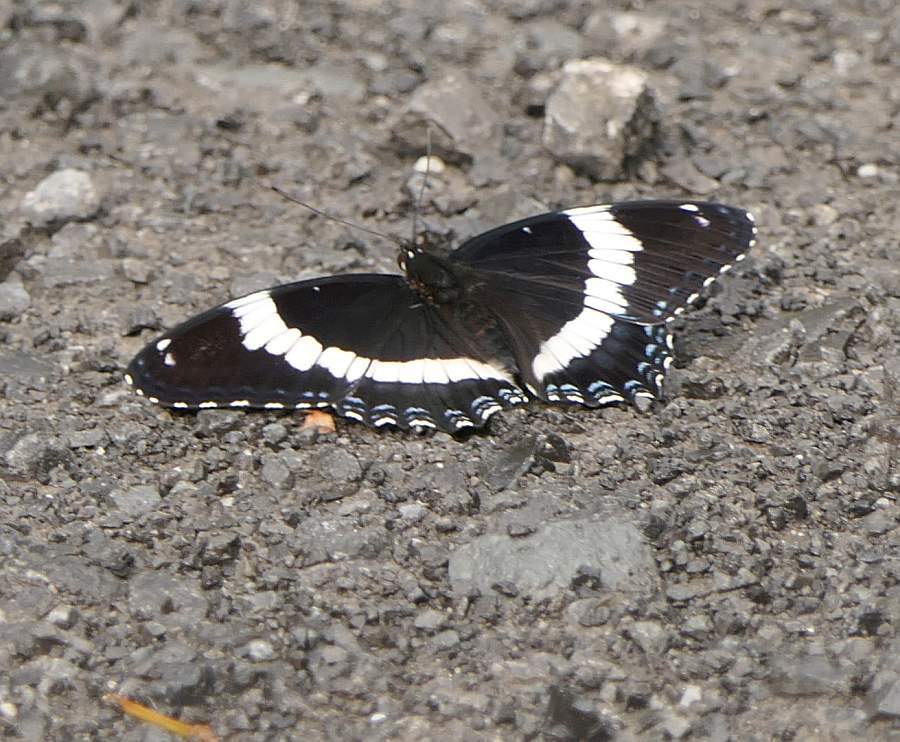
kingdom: Animalia
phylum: Arthropoda
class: Insecta
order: Lepidoptera
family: Nymphalidae
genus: Limenitis
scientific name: Limenitis arthemis
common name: Red-spotted admiral
